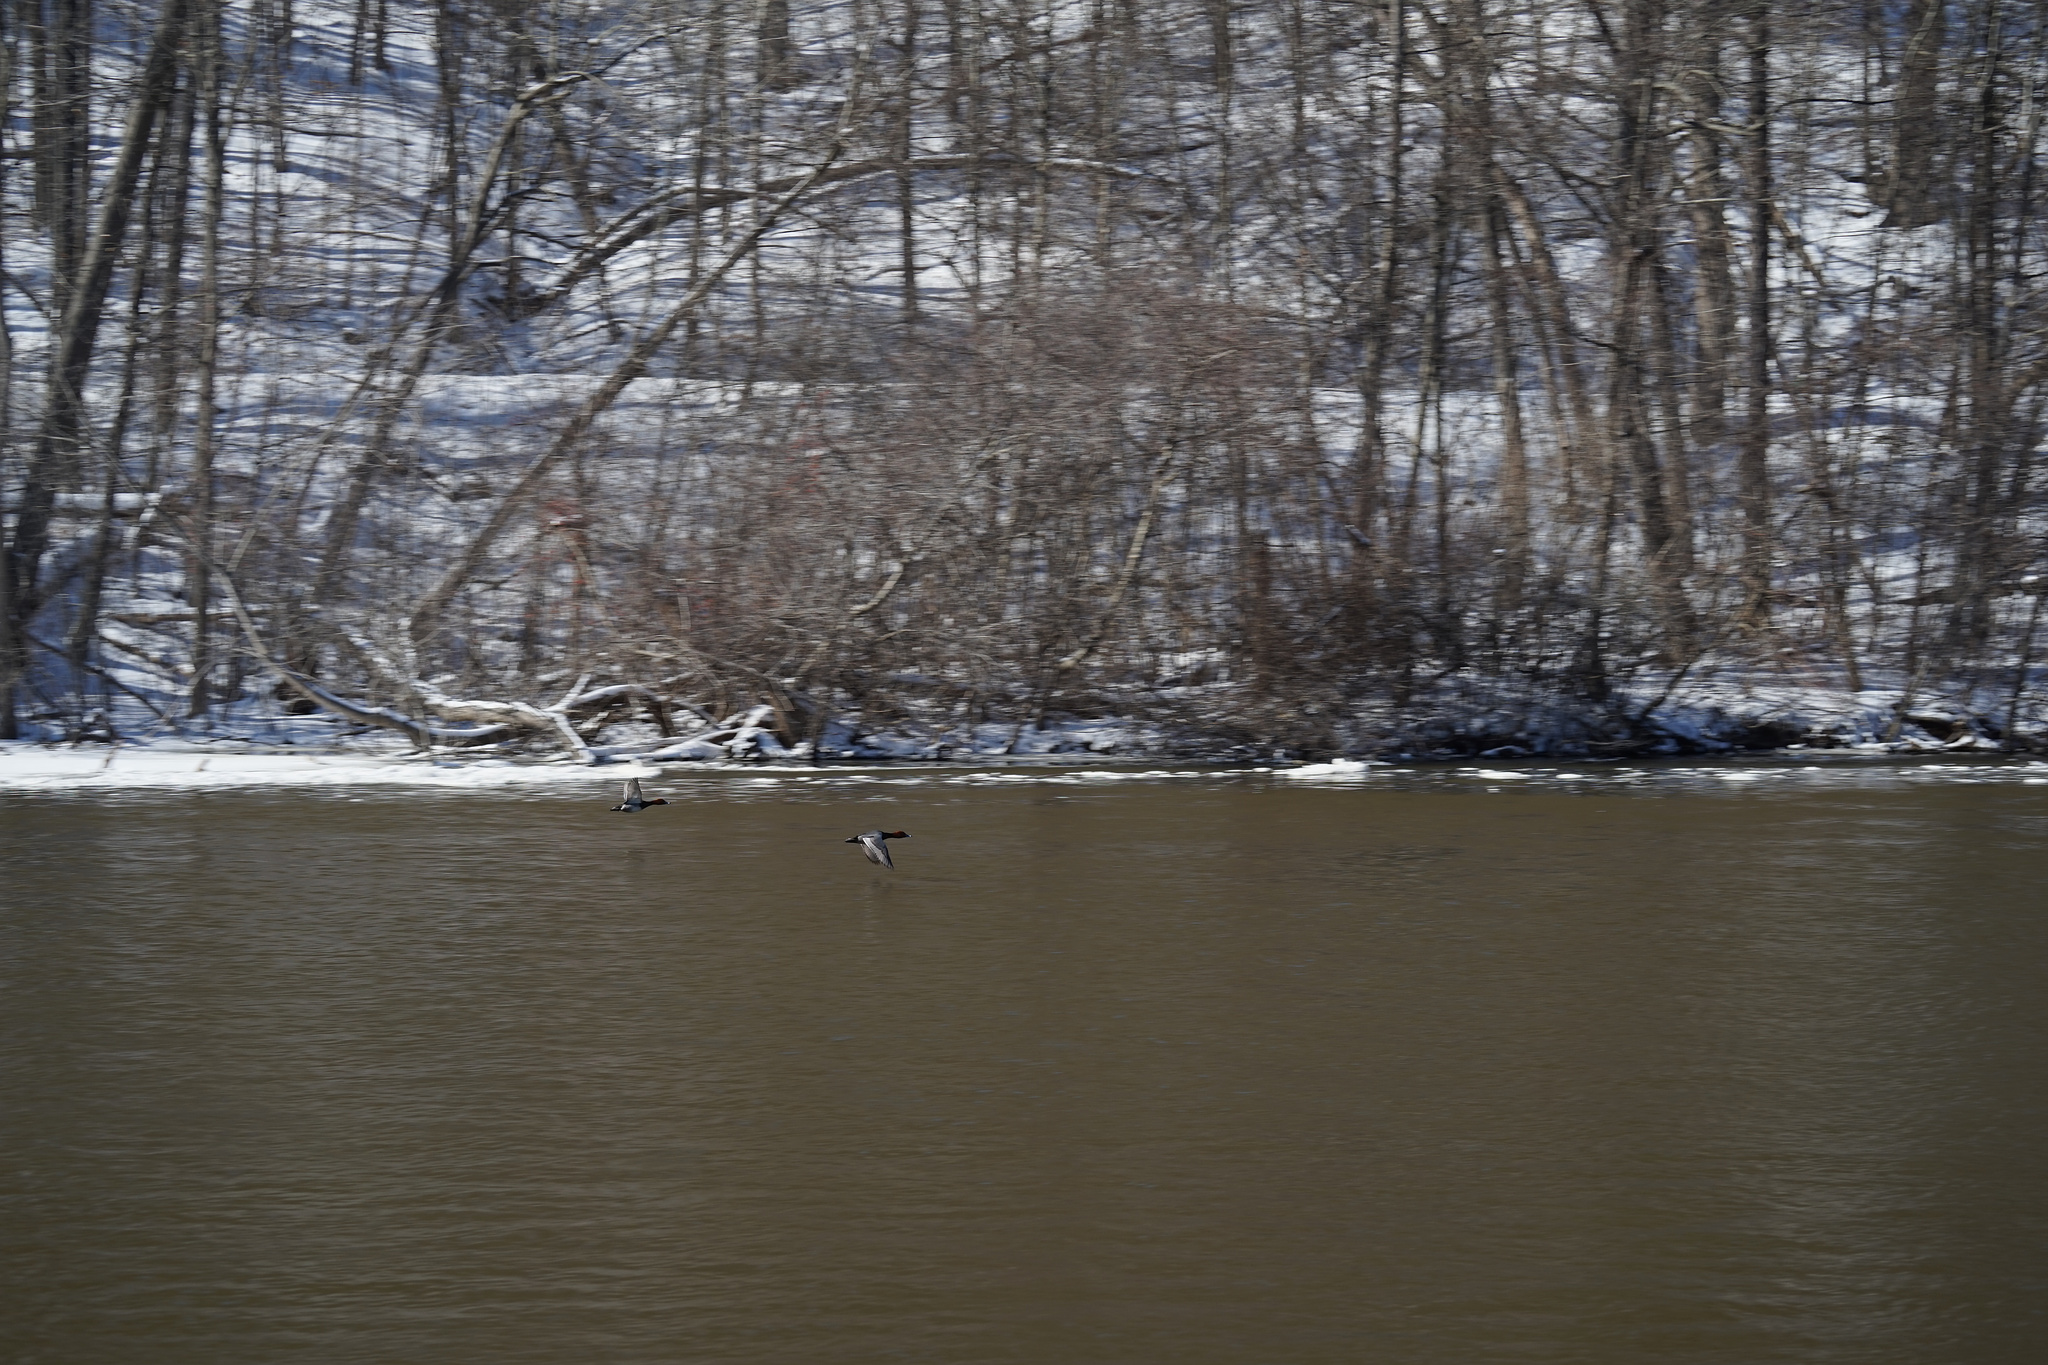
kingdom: Animalia
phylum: Chordata
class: Aves
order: Anseriformes
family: Anatidae
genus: Aythya
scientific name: Aythya americana
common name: Redhead
